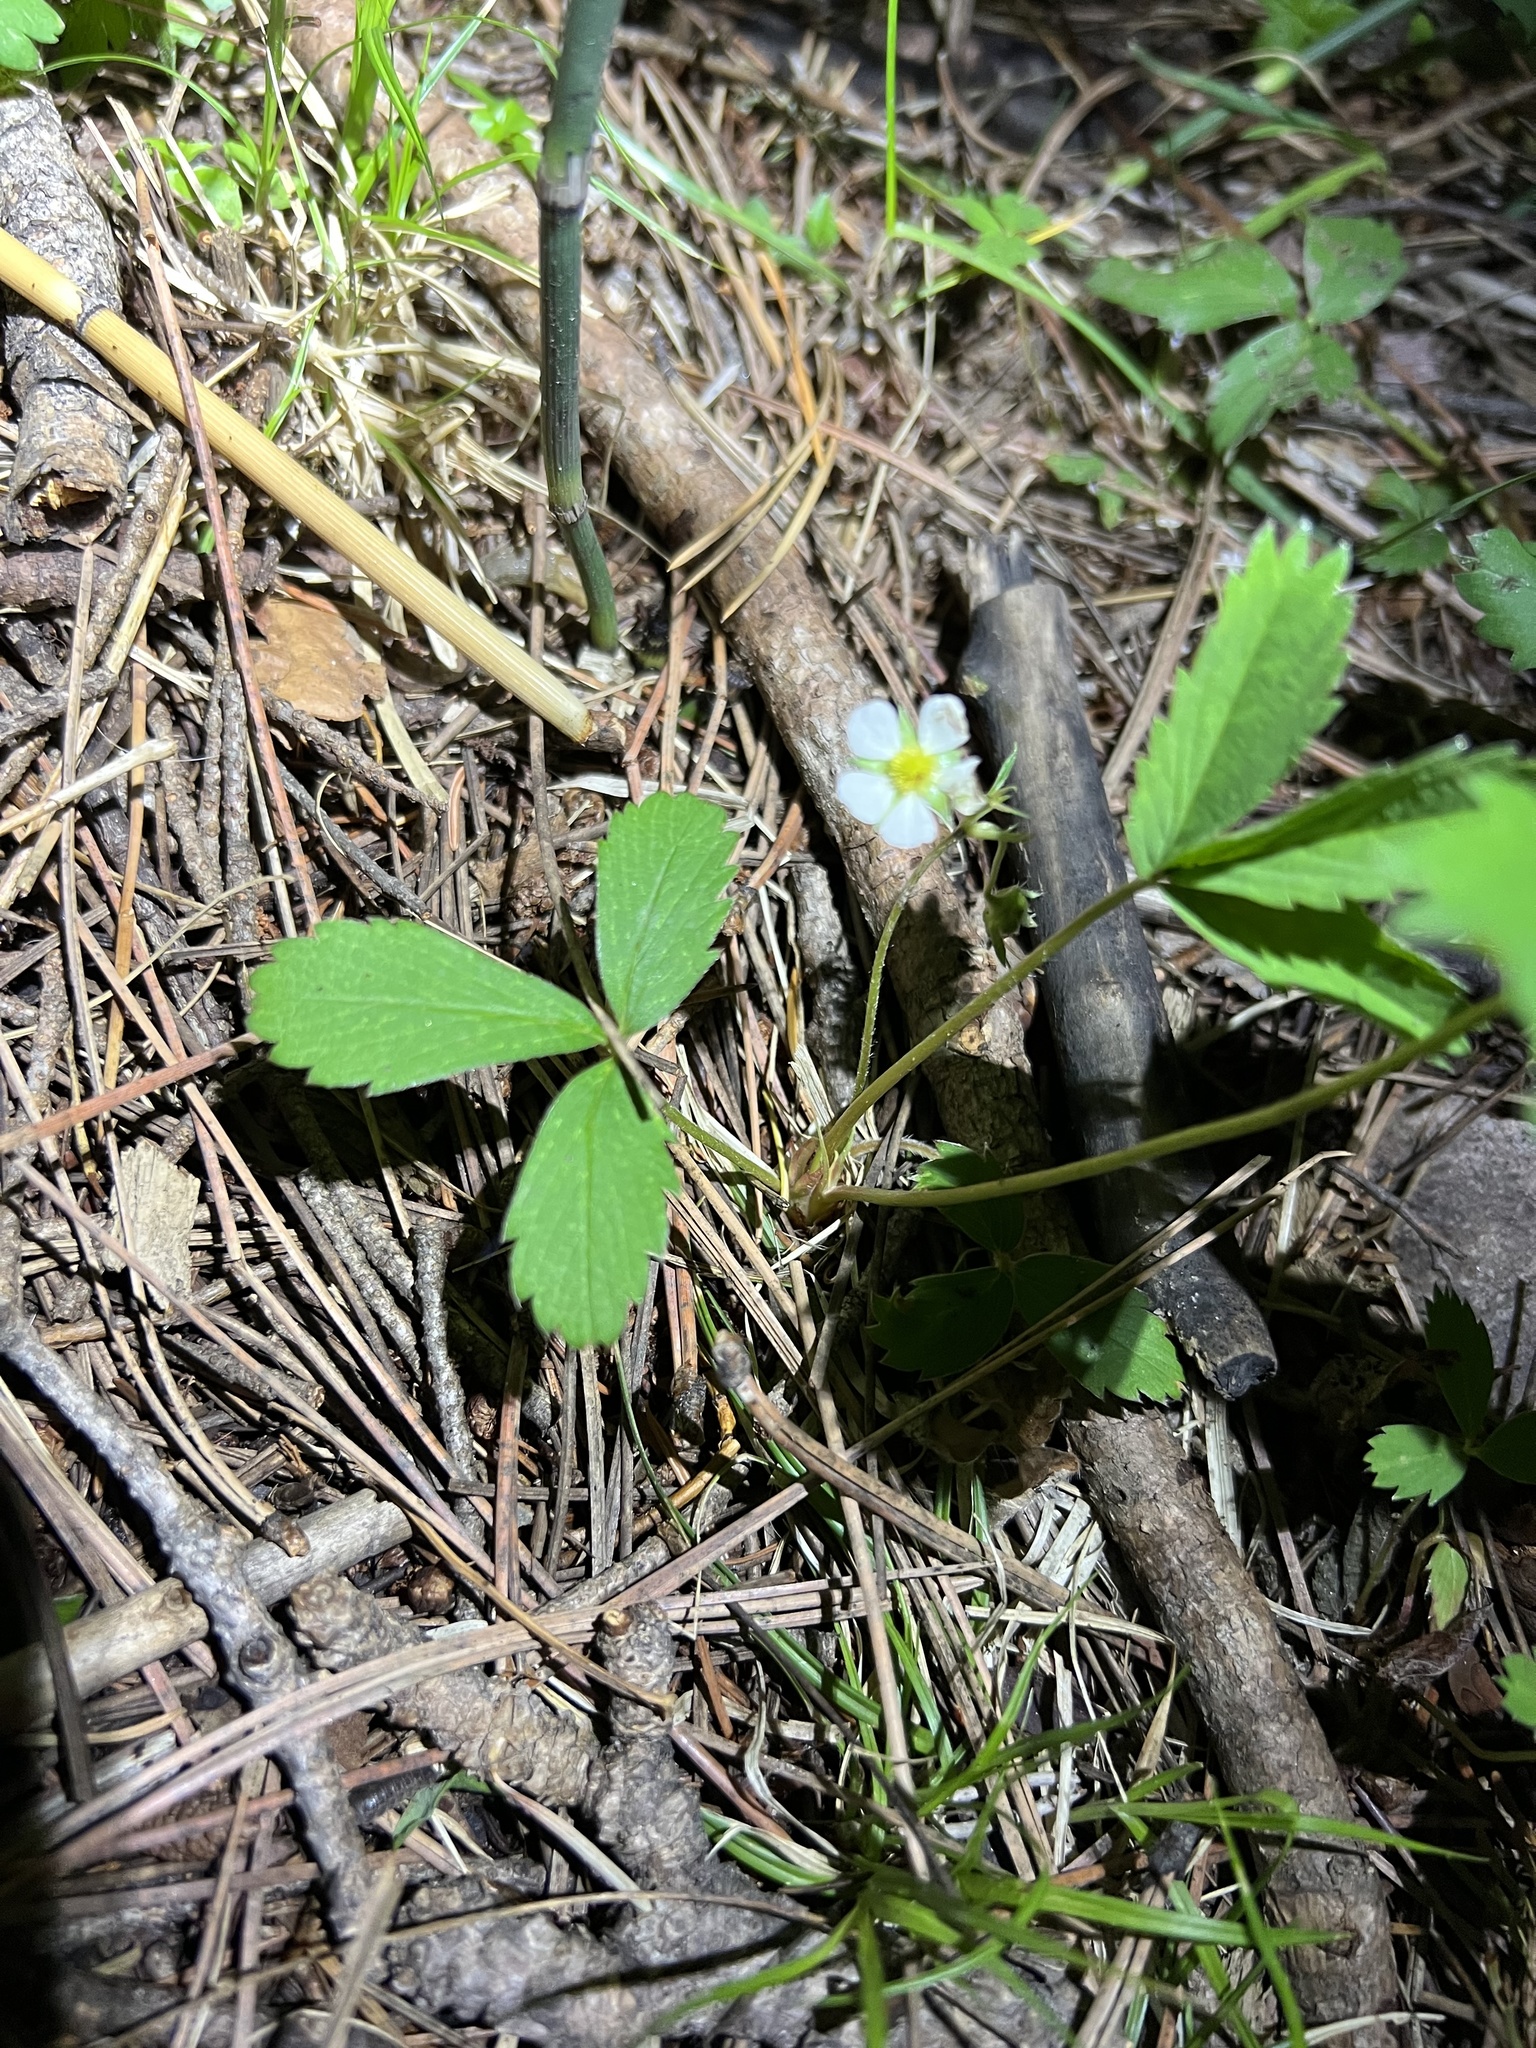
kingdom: Plantae
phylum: Tracheophyta
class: Magnoliopsida
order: Rosales
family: Rosaceae
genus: Fragaria
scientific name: Fragaria virginiana
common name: Thickleaved wild strawberry
